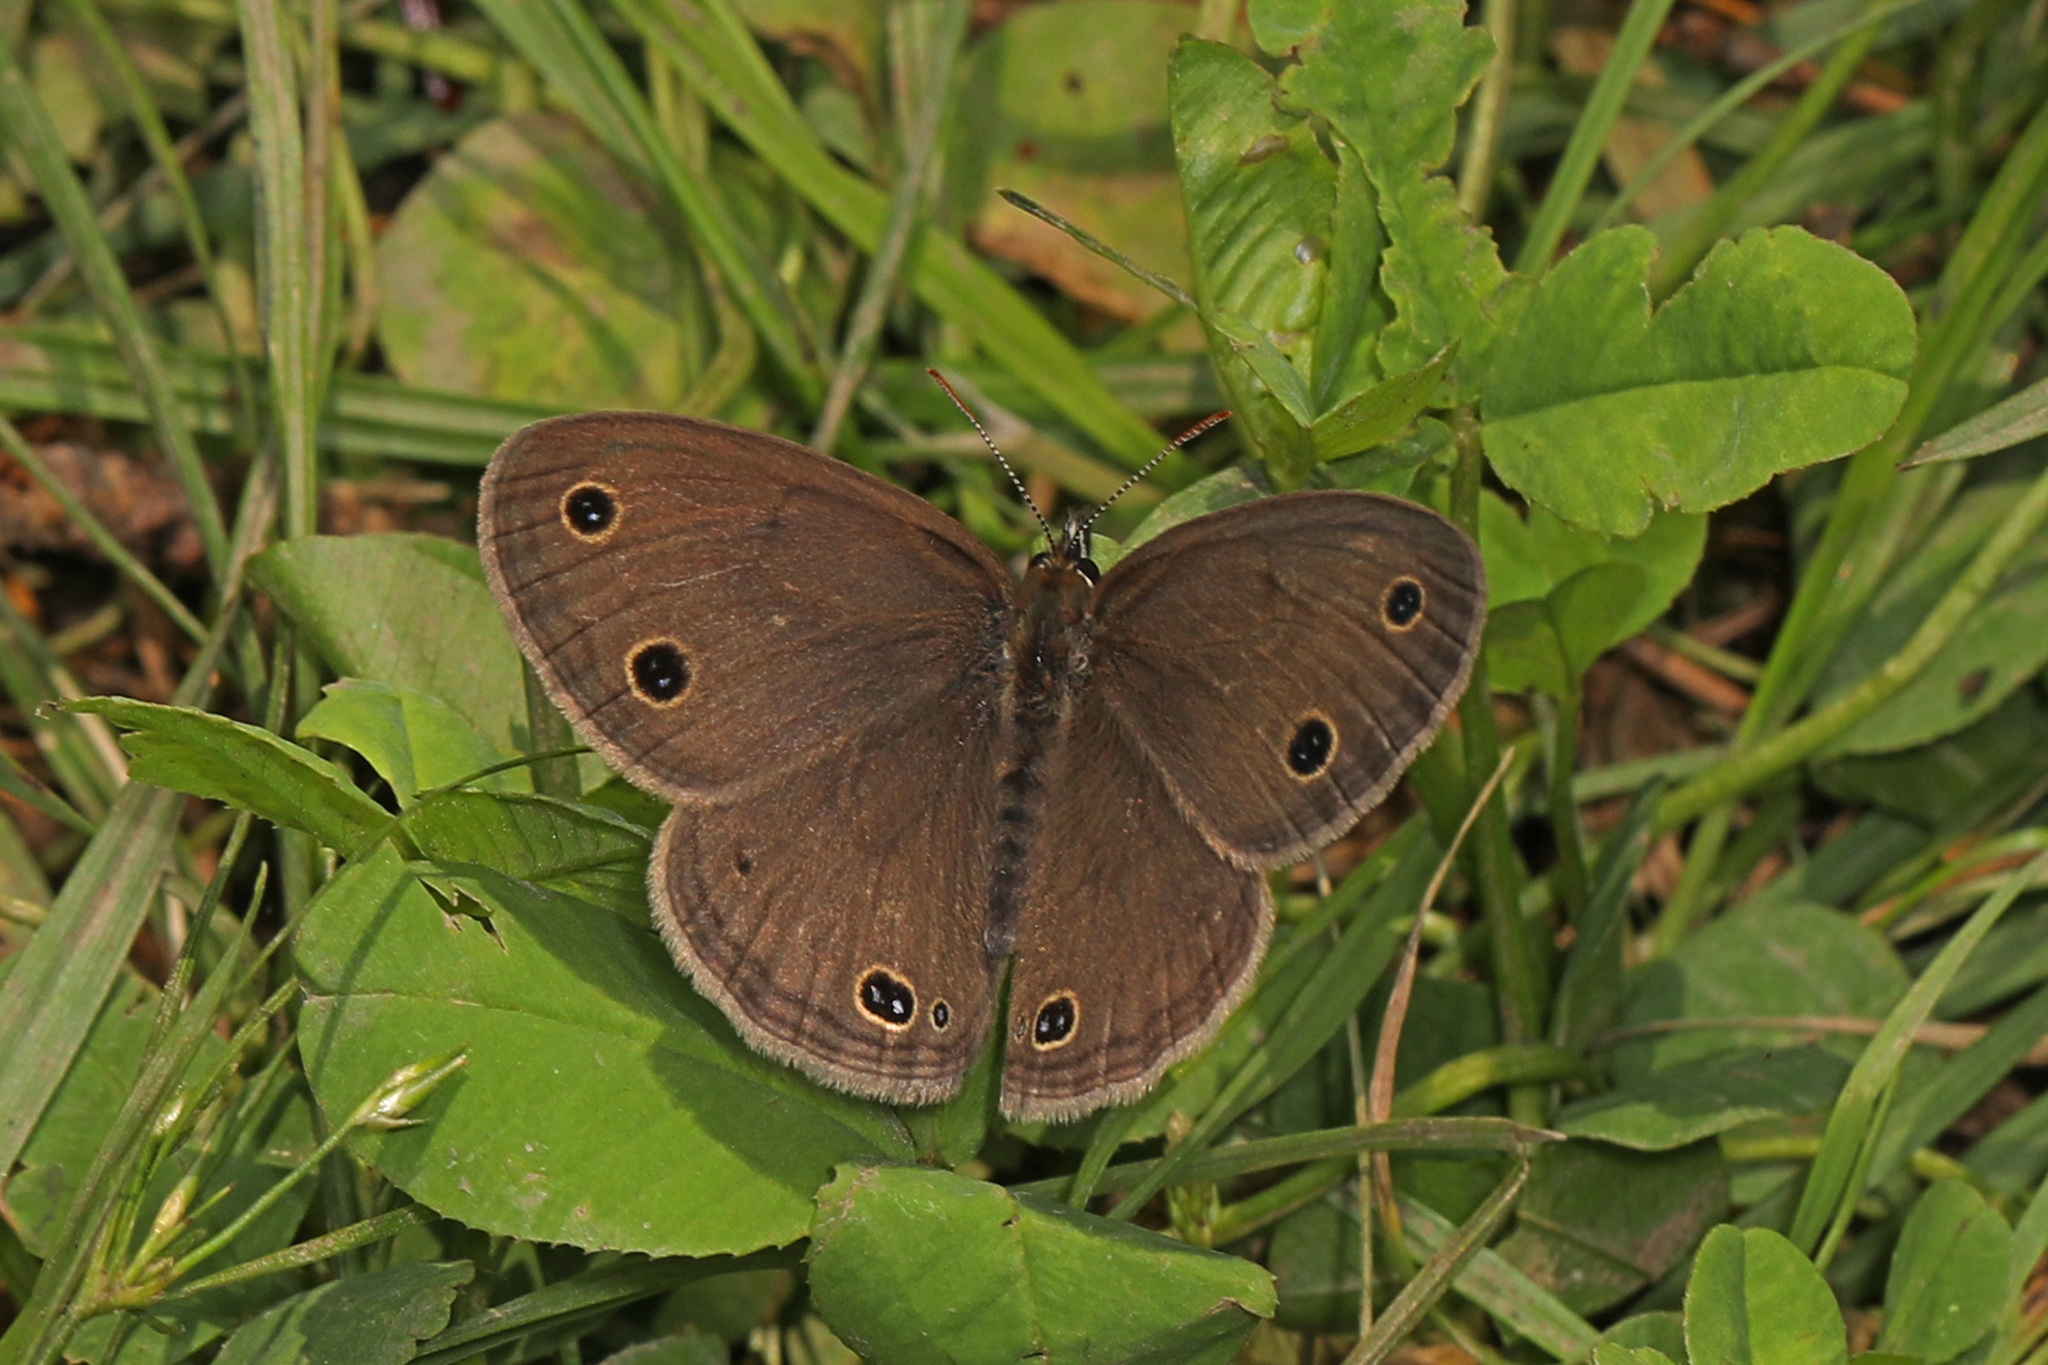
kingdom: Animalia
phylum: Arthropoda
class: Insecta
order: Lepidoptera
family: Nymphalidae
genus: Euptychia
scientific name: Euptychia cymela
